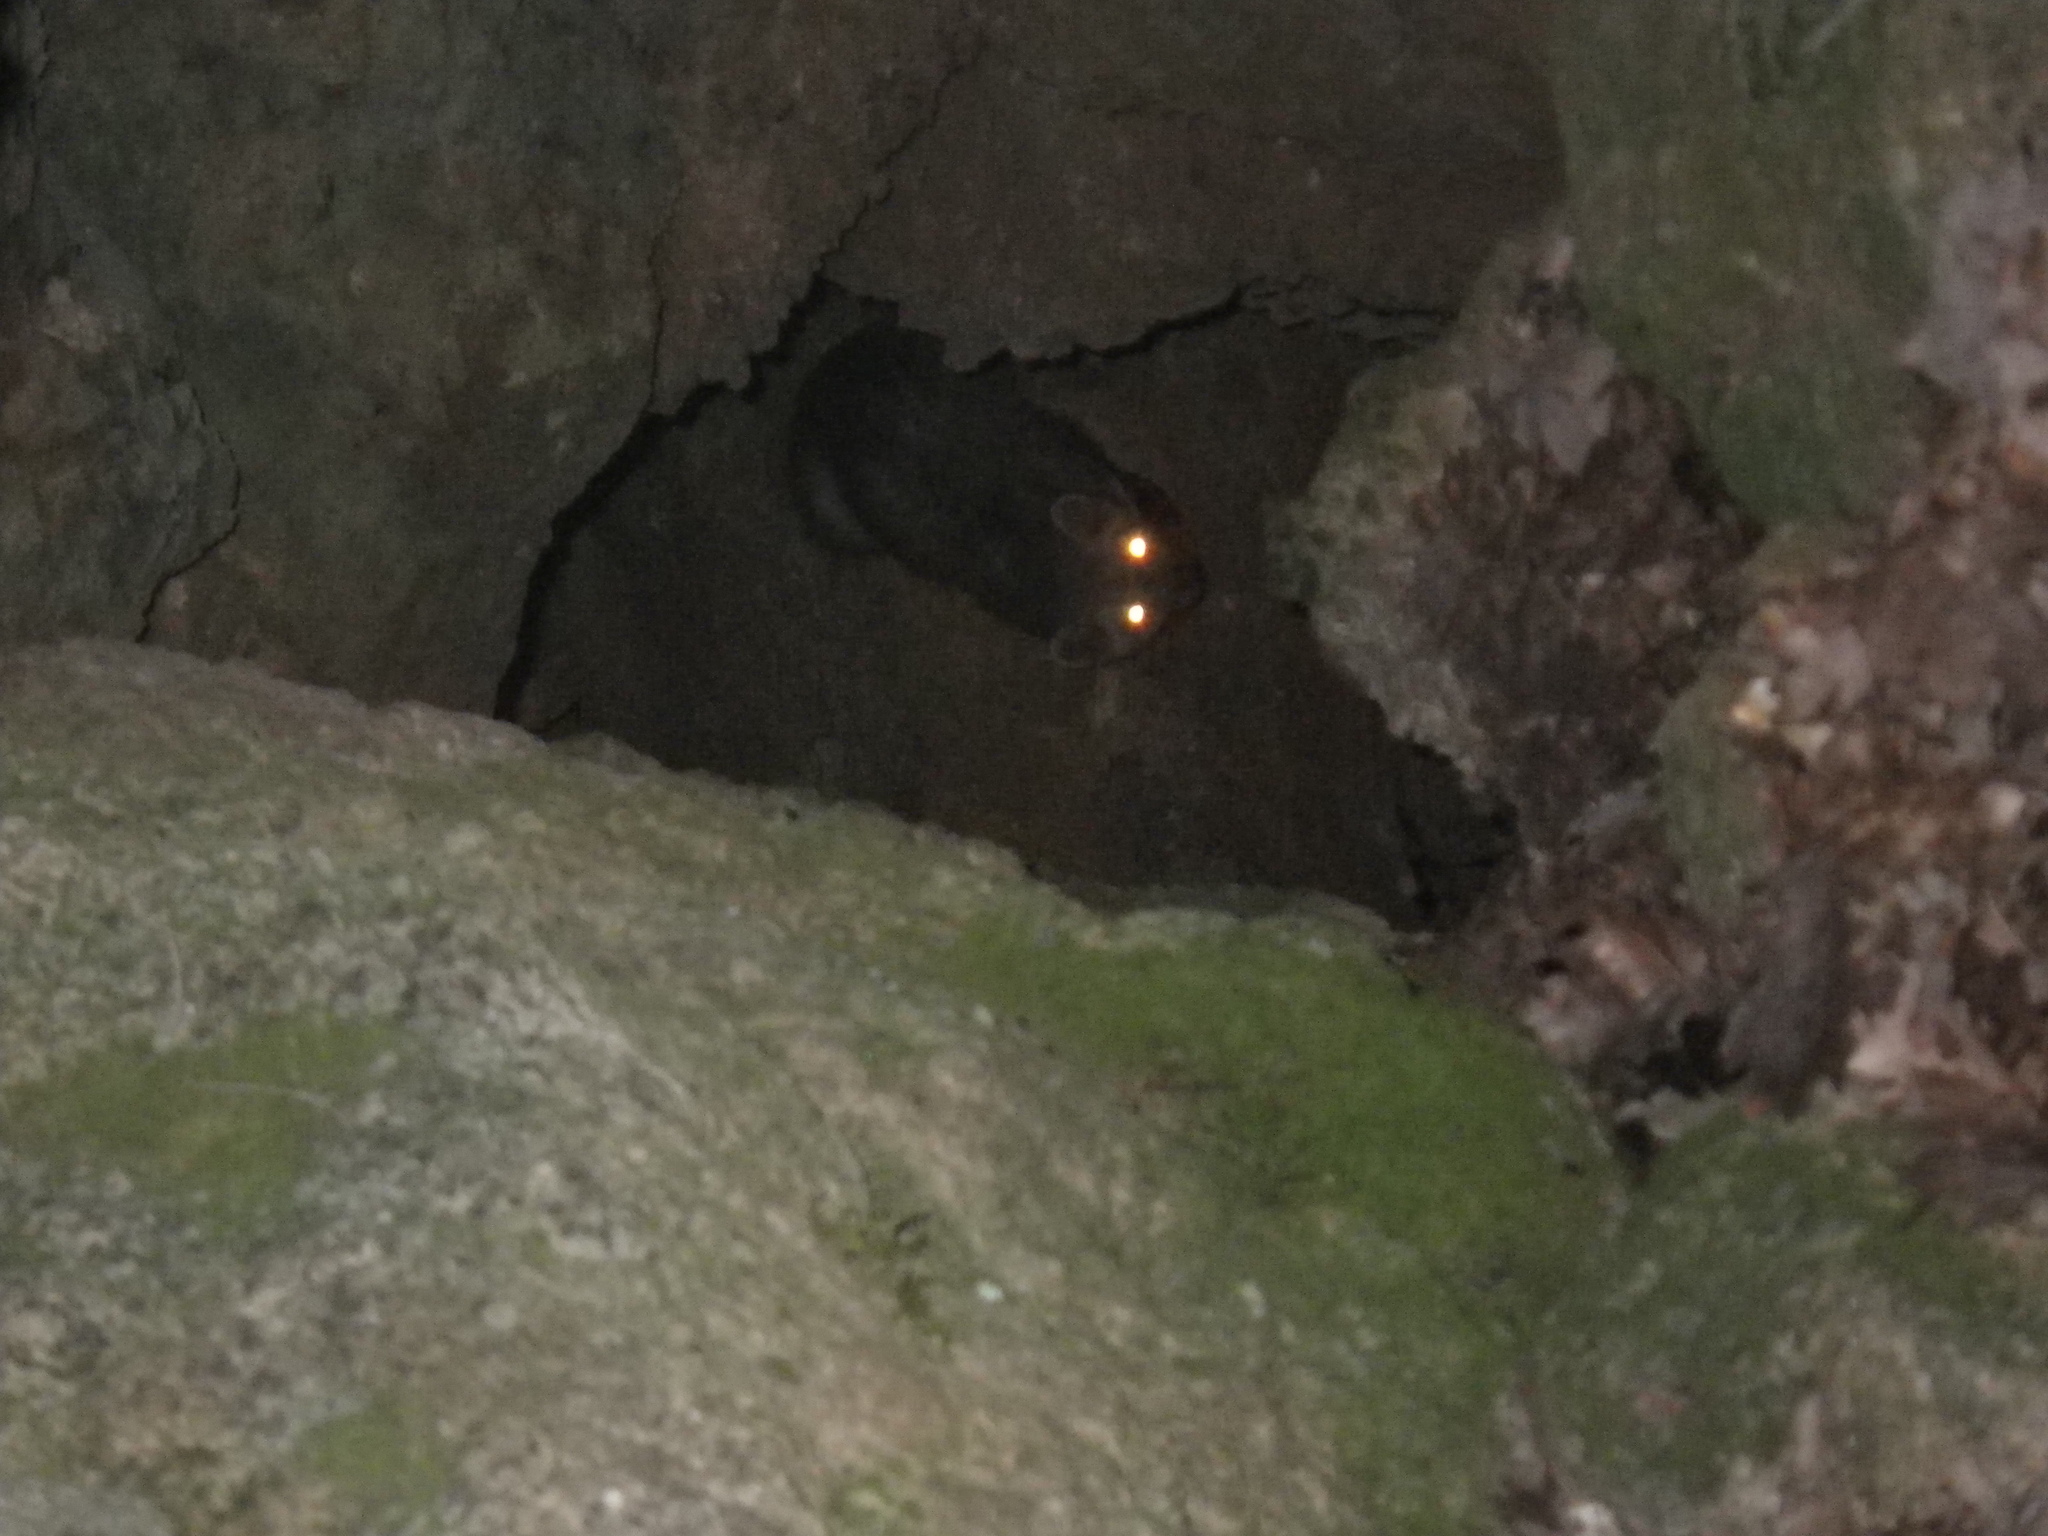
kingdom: Animalia
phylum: Chordata
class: Mammalia
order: Carnivora
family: Mustelidae
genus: Martes
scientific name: Martes foina
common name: Beech marten
